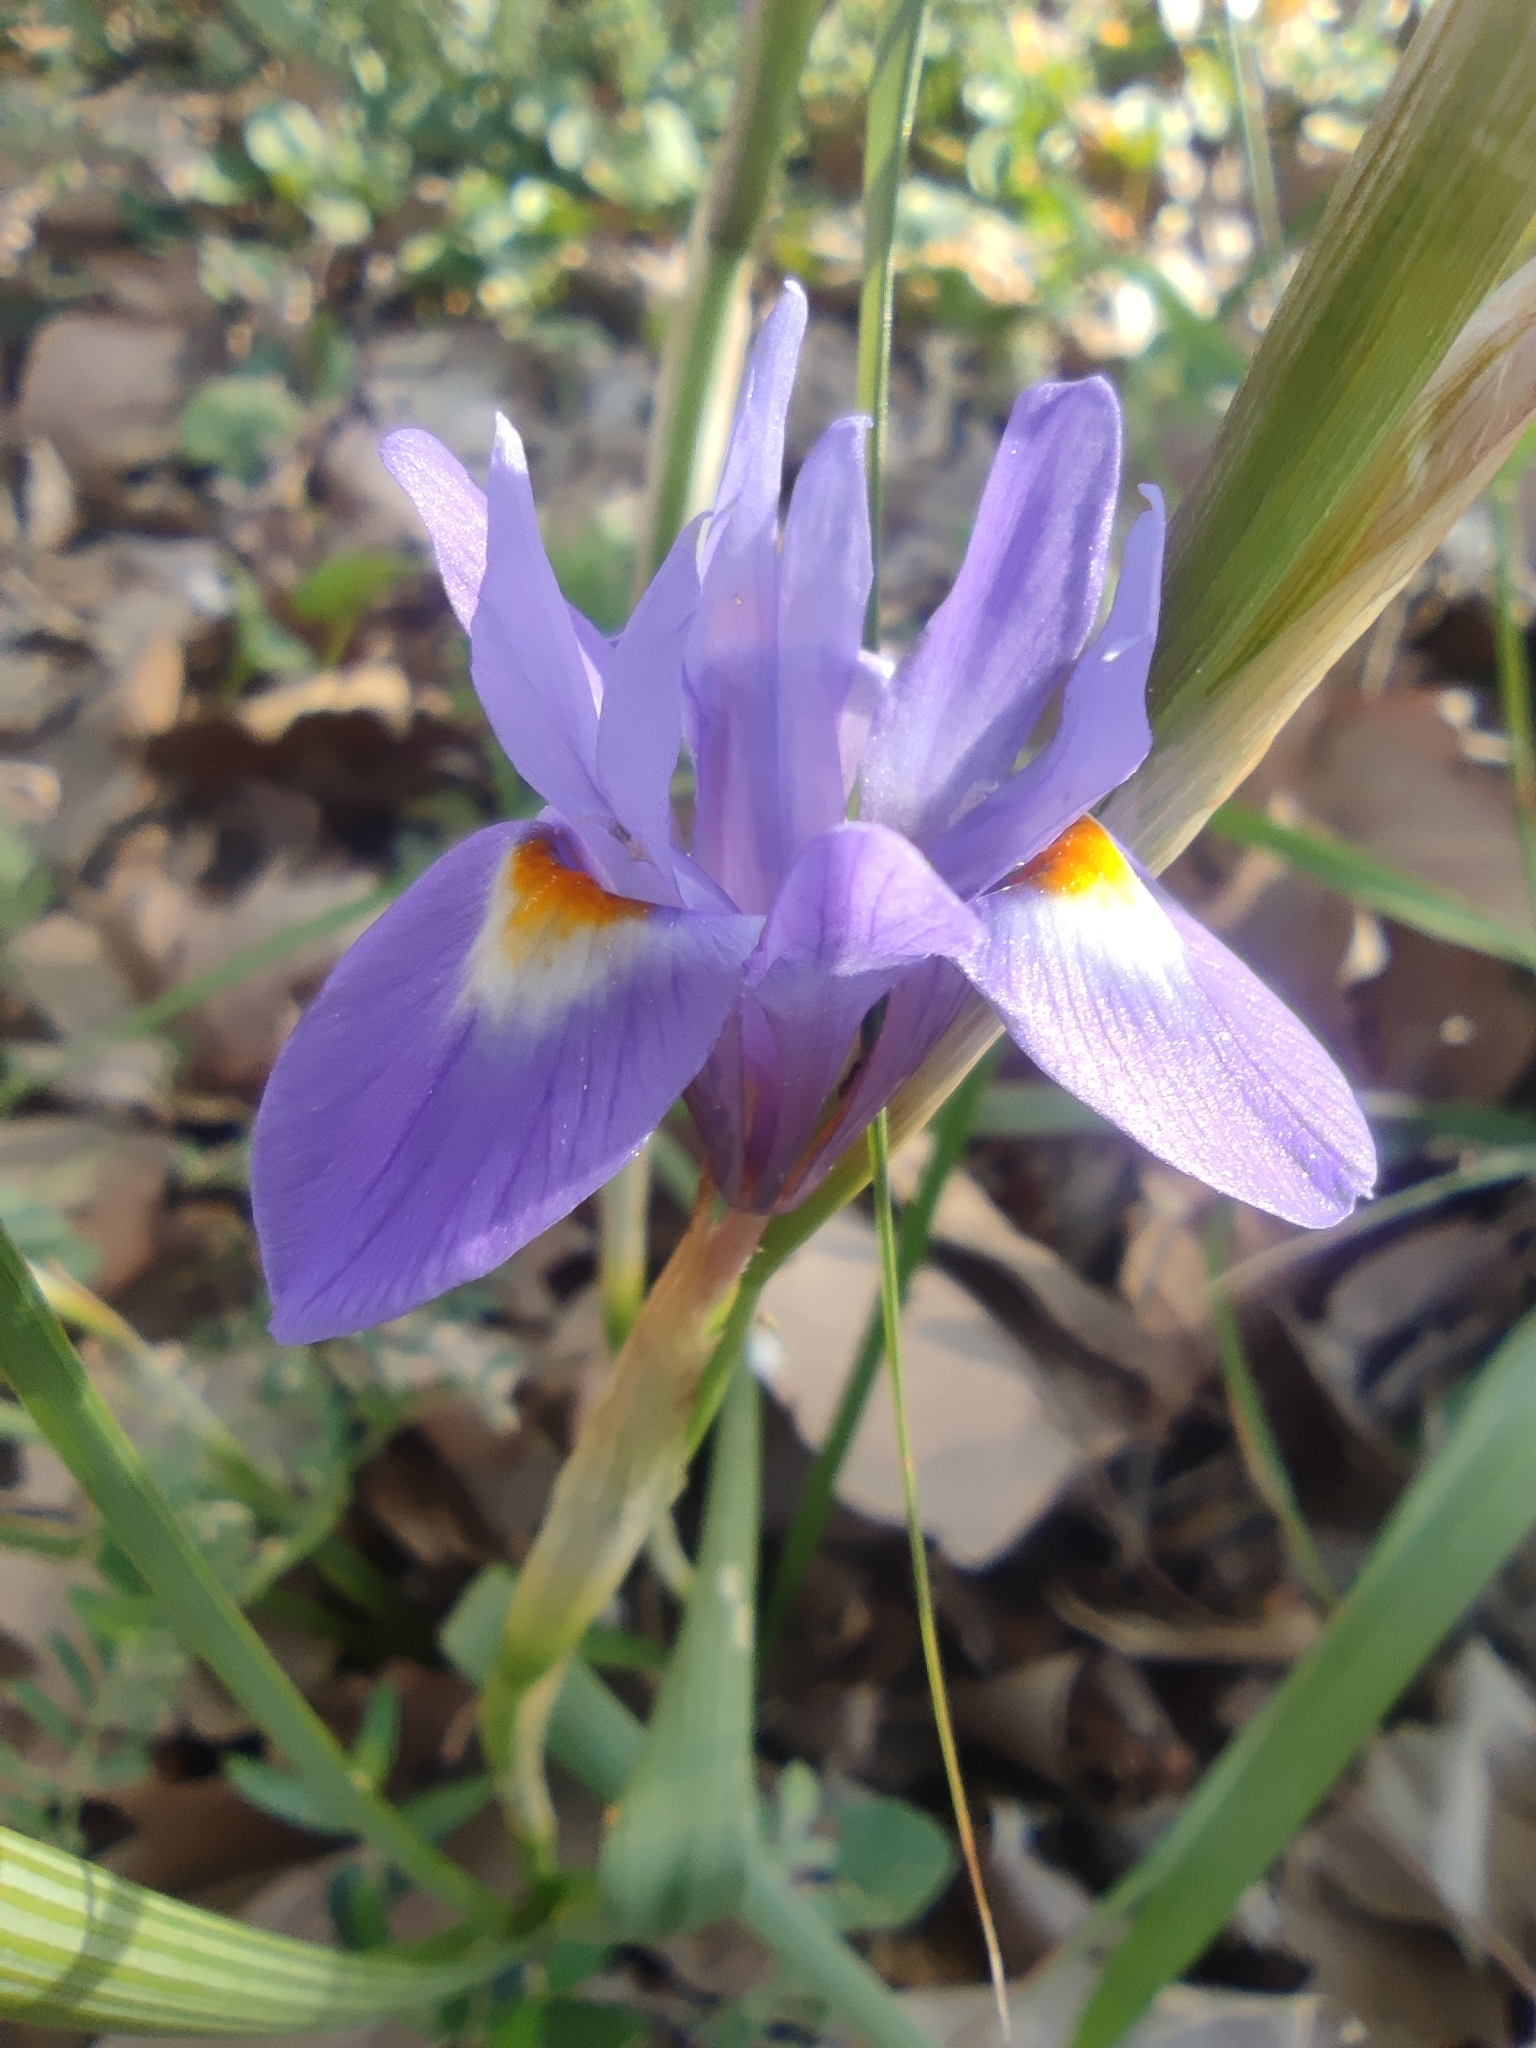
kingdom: Plantae
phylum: Tracheophyta
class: Liliopsida
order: Asparagales
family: Iridaceae
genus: Moraea
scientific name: Moraea sisyrinchium
